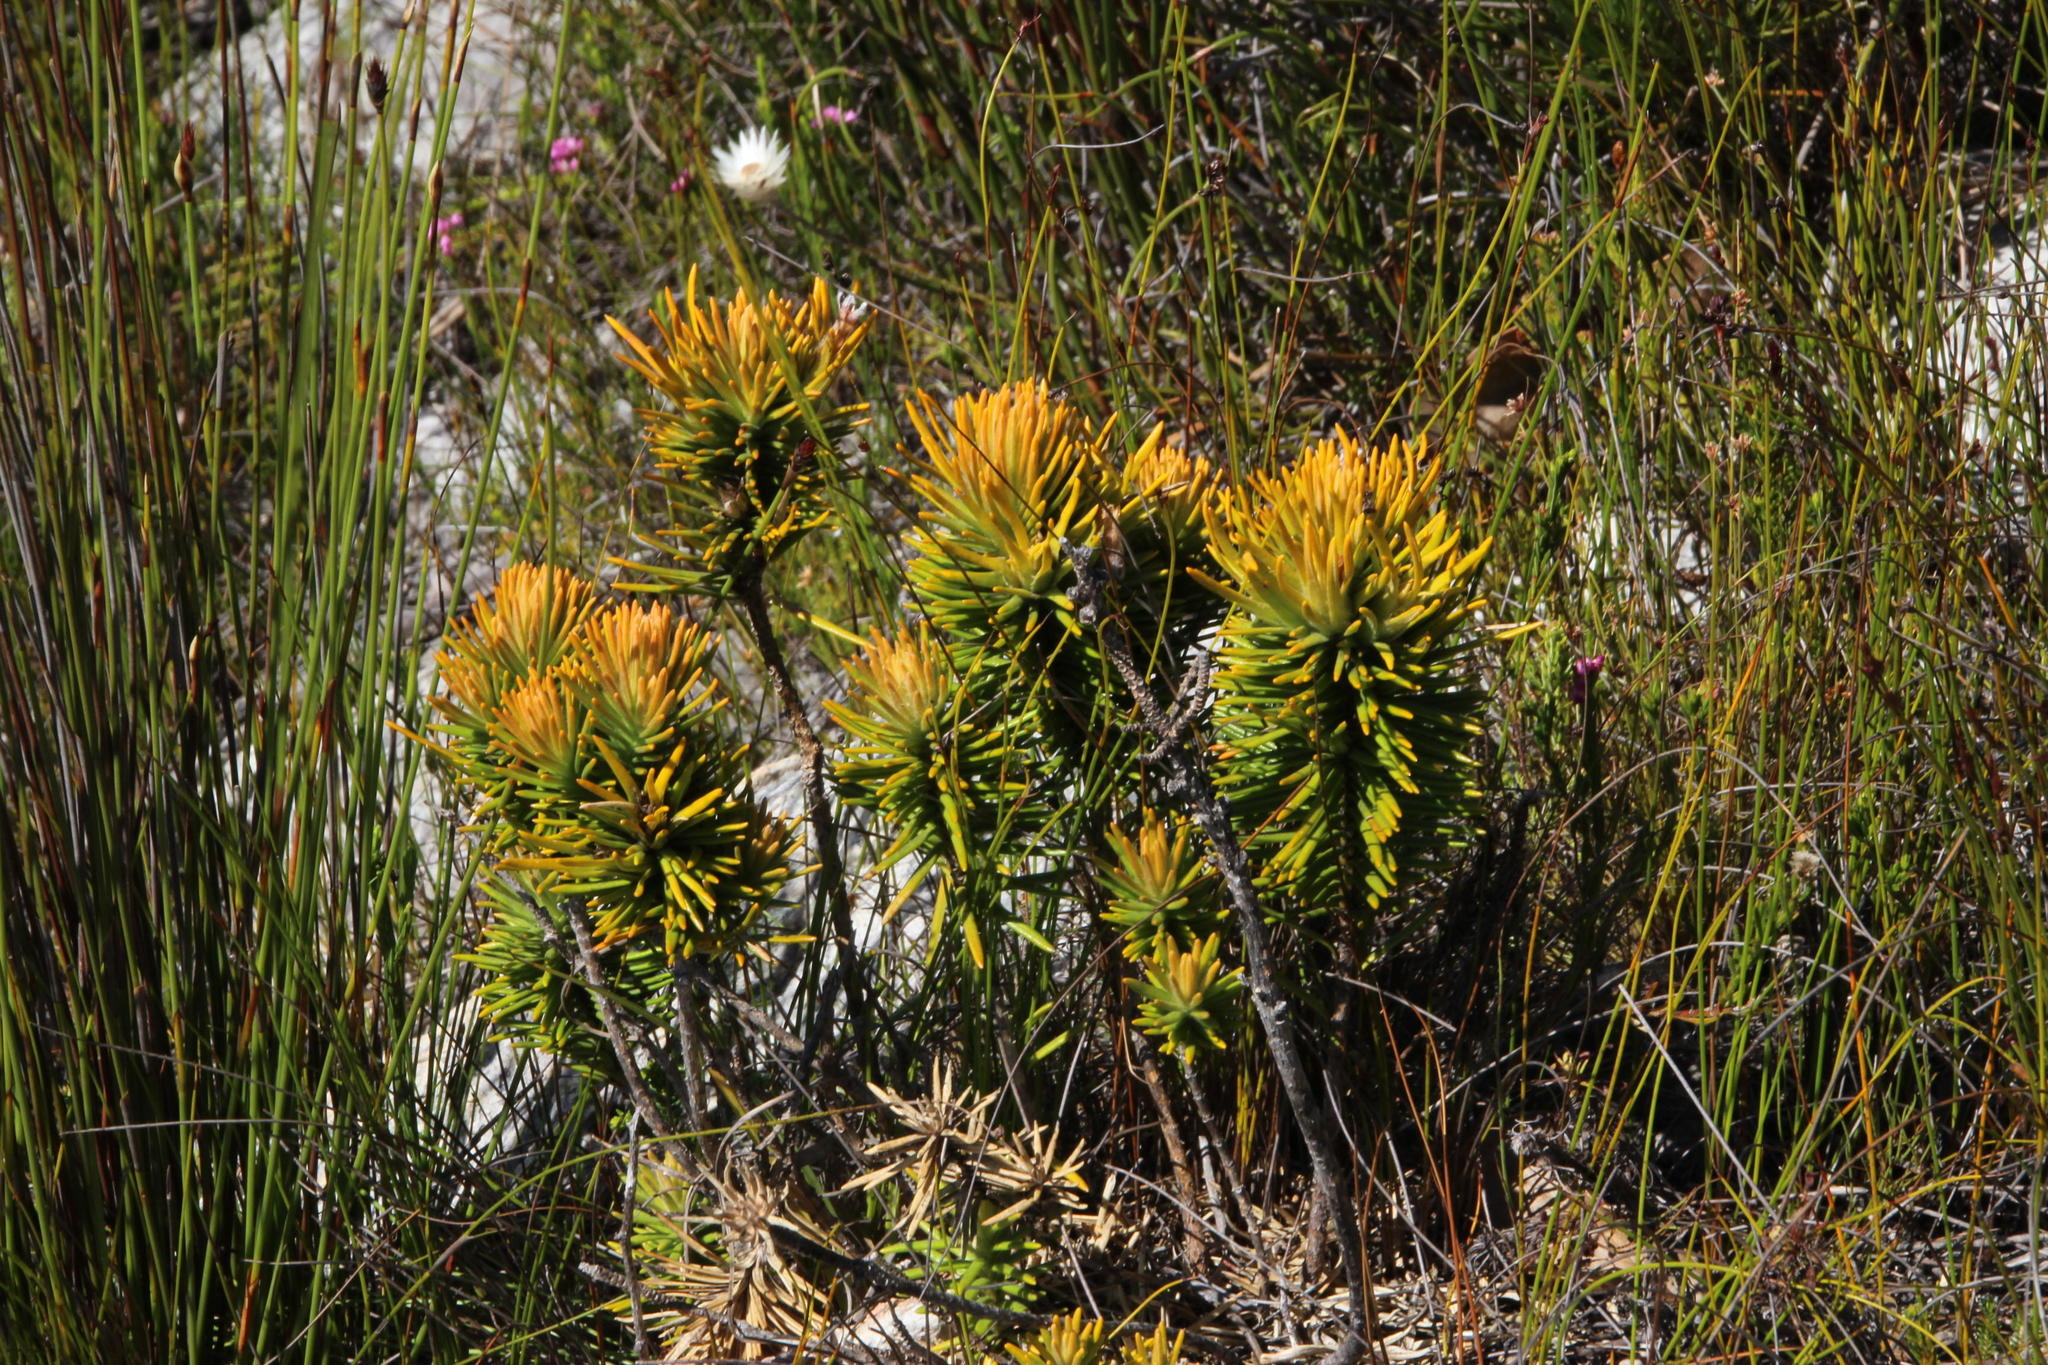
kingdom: Plantae
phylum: Tracheophyta
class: Magnoliopsida
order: Lamiales
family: Stilbaceae
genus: Retzia
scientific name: Retzia capensis
